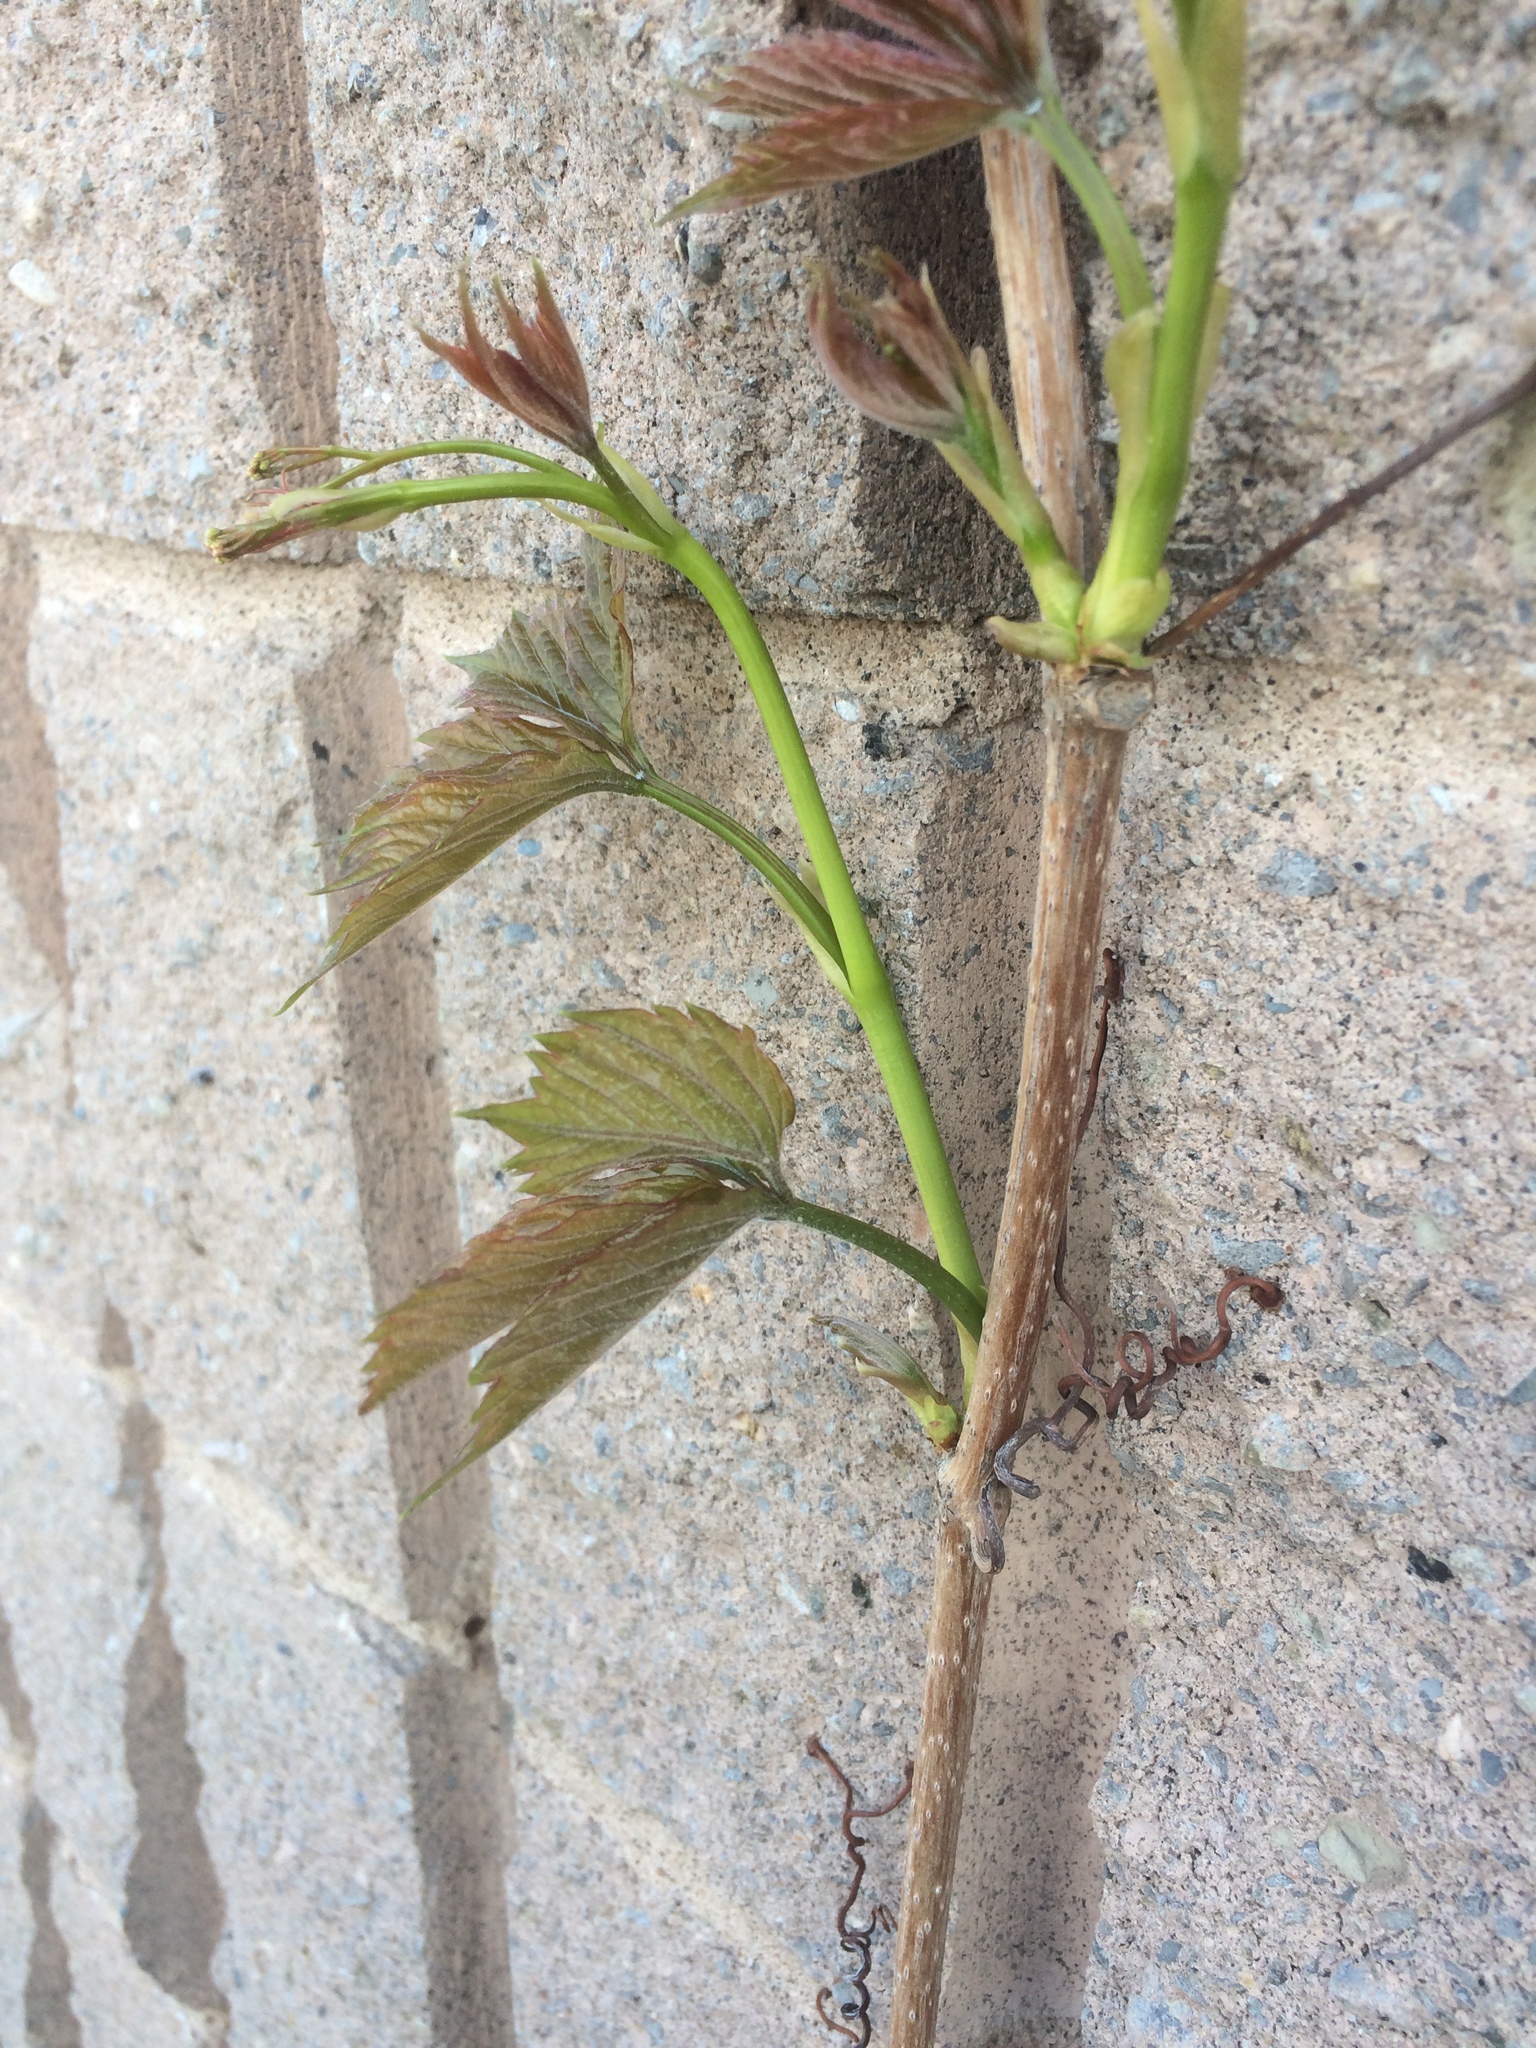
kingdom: Plantae
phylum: Tracheophyta
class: Magnoliopsida
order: Vitales
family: Vitaceae
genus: Parthenocissus
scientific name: Parthenocissus quinquefolia
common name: Virginia-creeper
